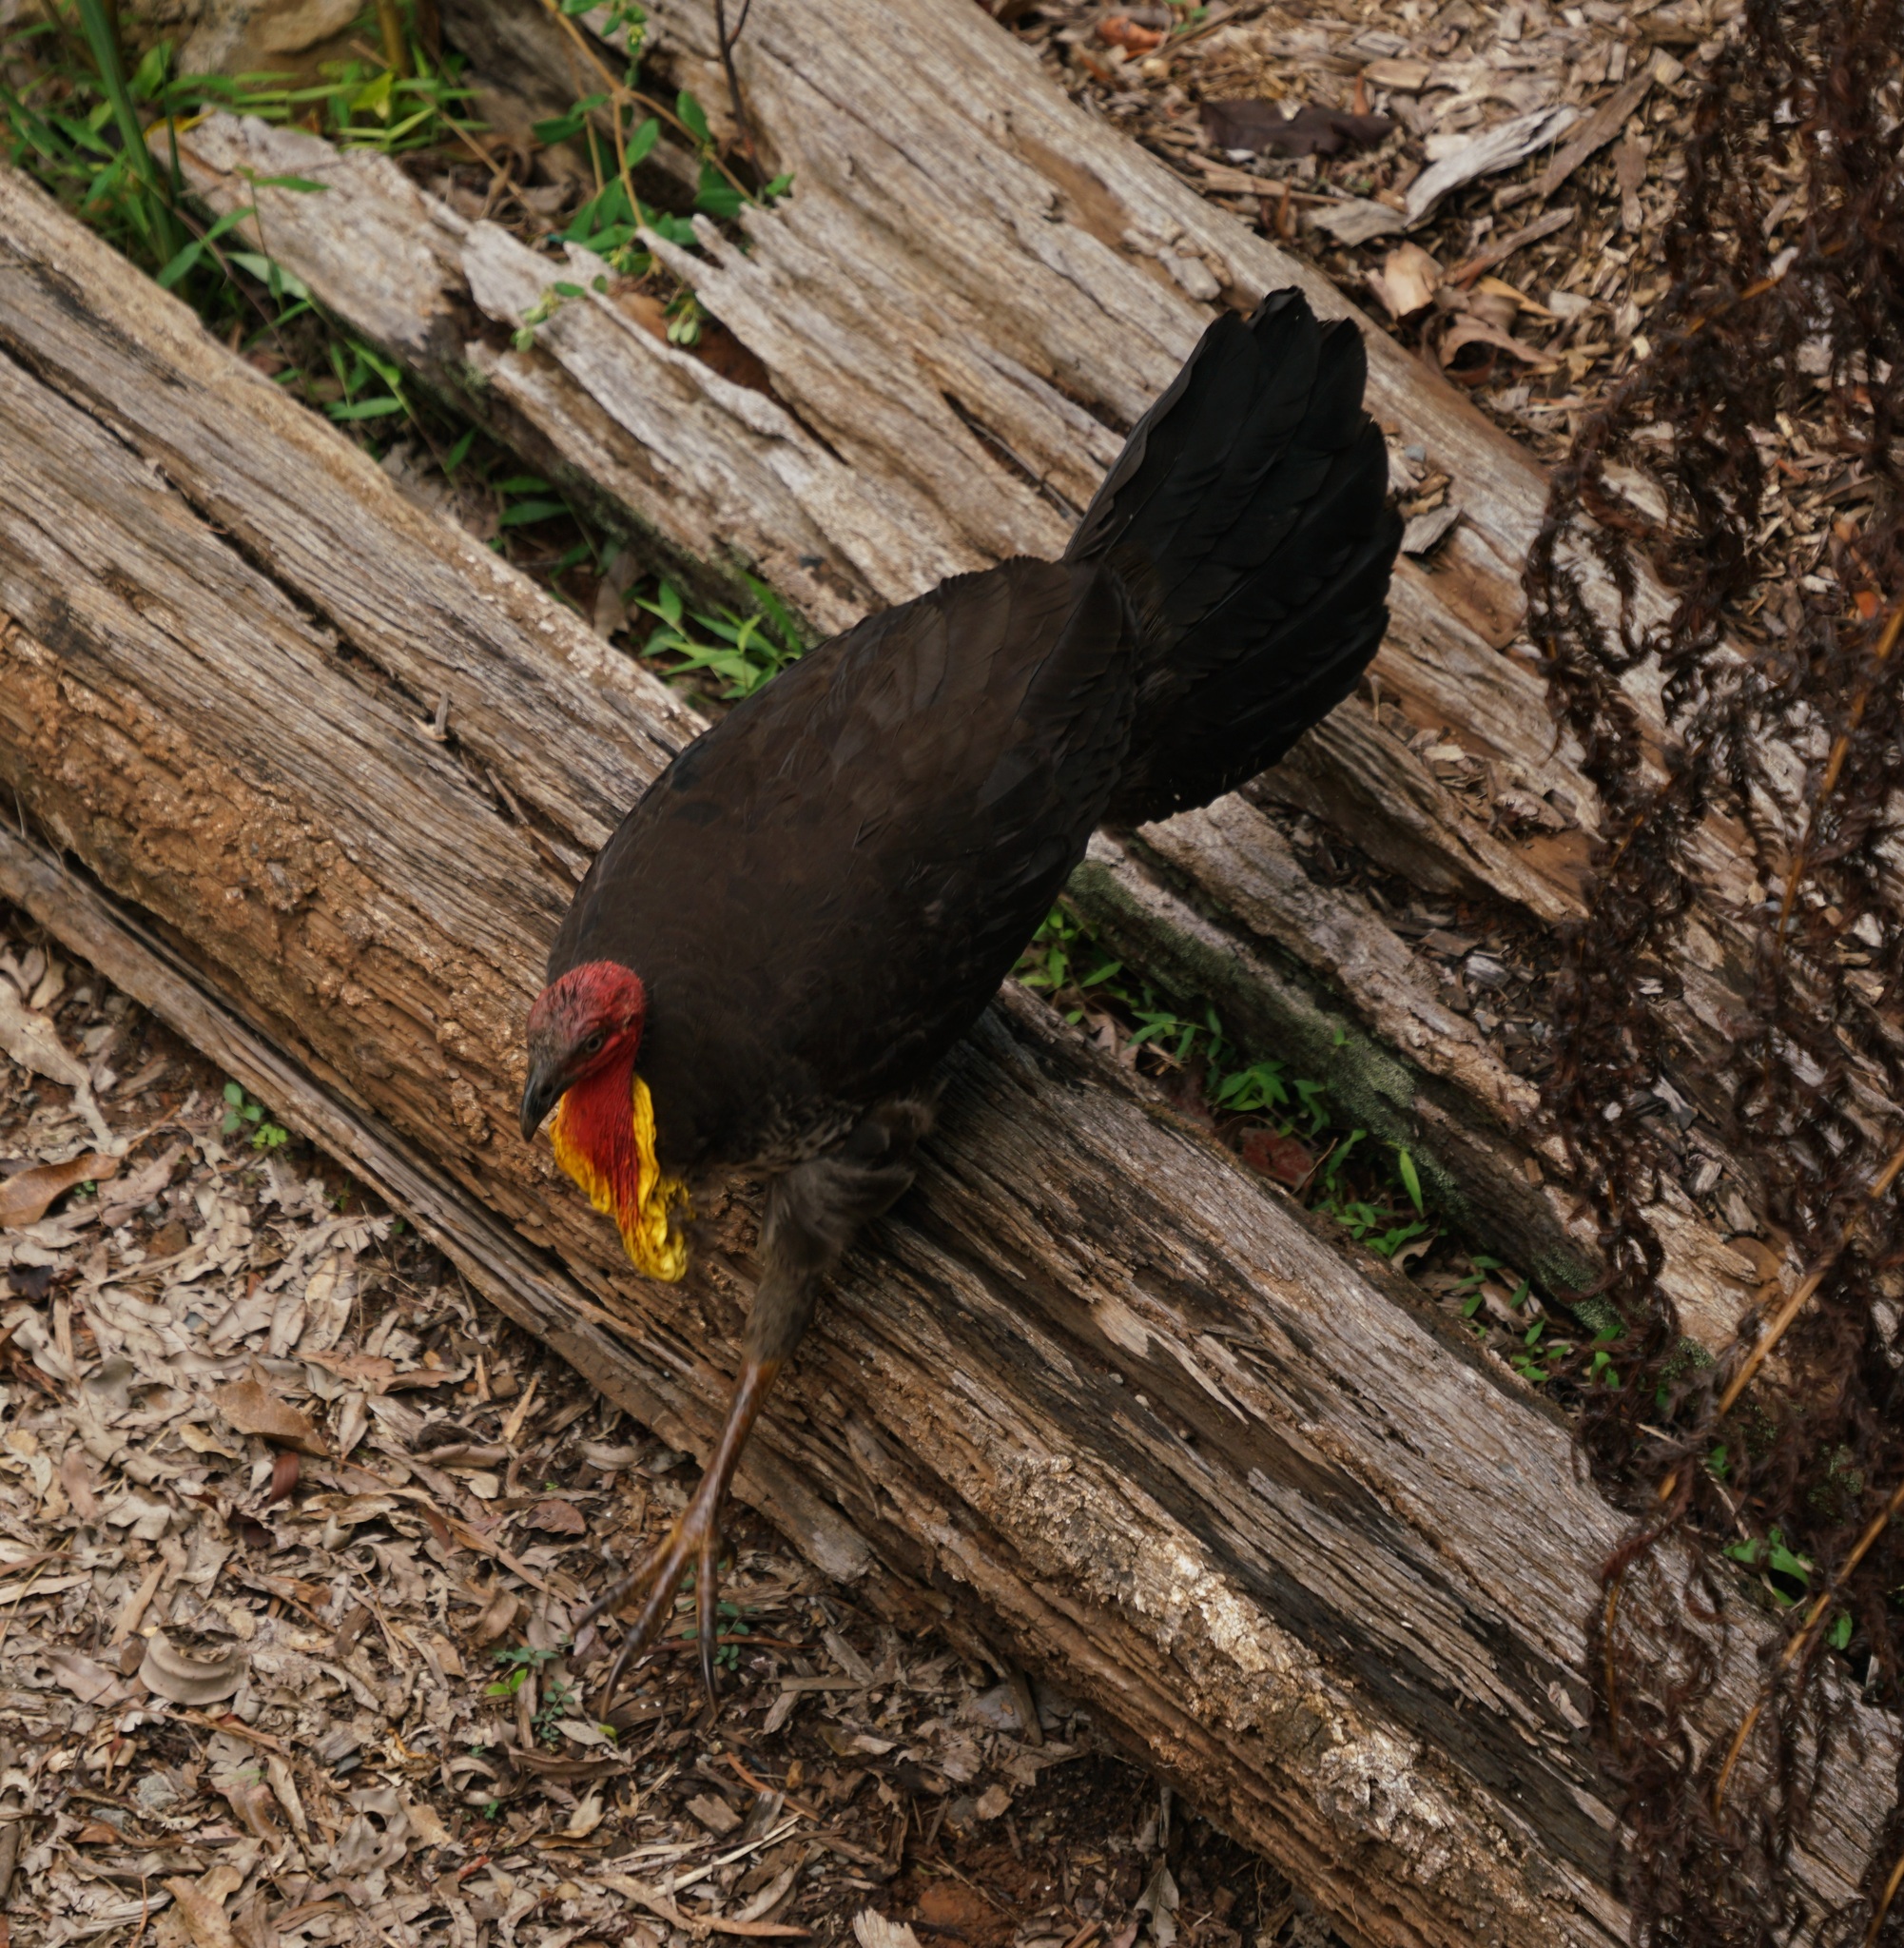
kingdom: Animalia
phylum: Chordata
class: Aves
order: Galliformes
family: Megapodiidae
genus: Alectura
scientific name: Alectura lathami
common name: Australian brushturkey
